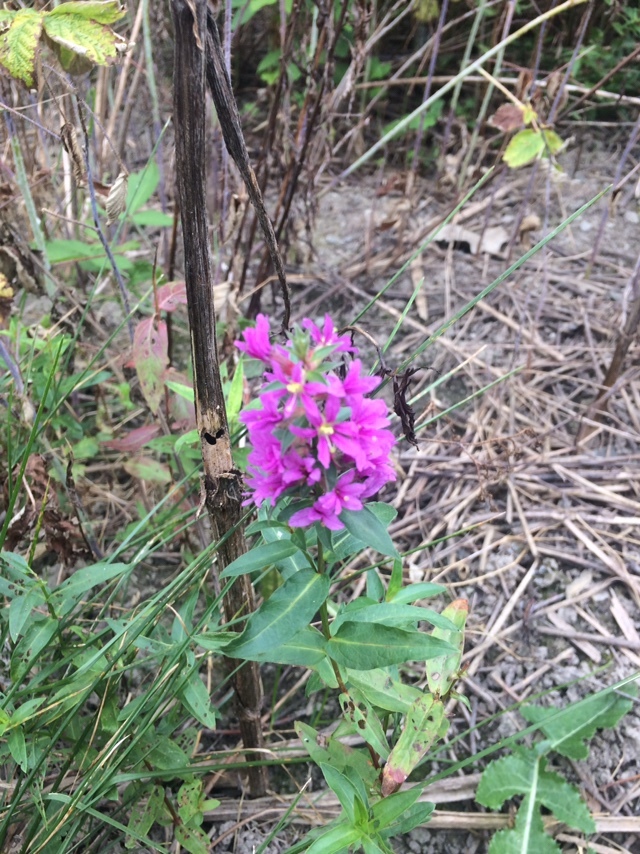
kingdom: Plantae
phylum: Tracheophyta
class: Magnoliopsida
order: Myrtales
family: Lythraceae
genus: Lythrum
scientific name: Lythrum salicaria
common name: Purple loosestrife
